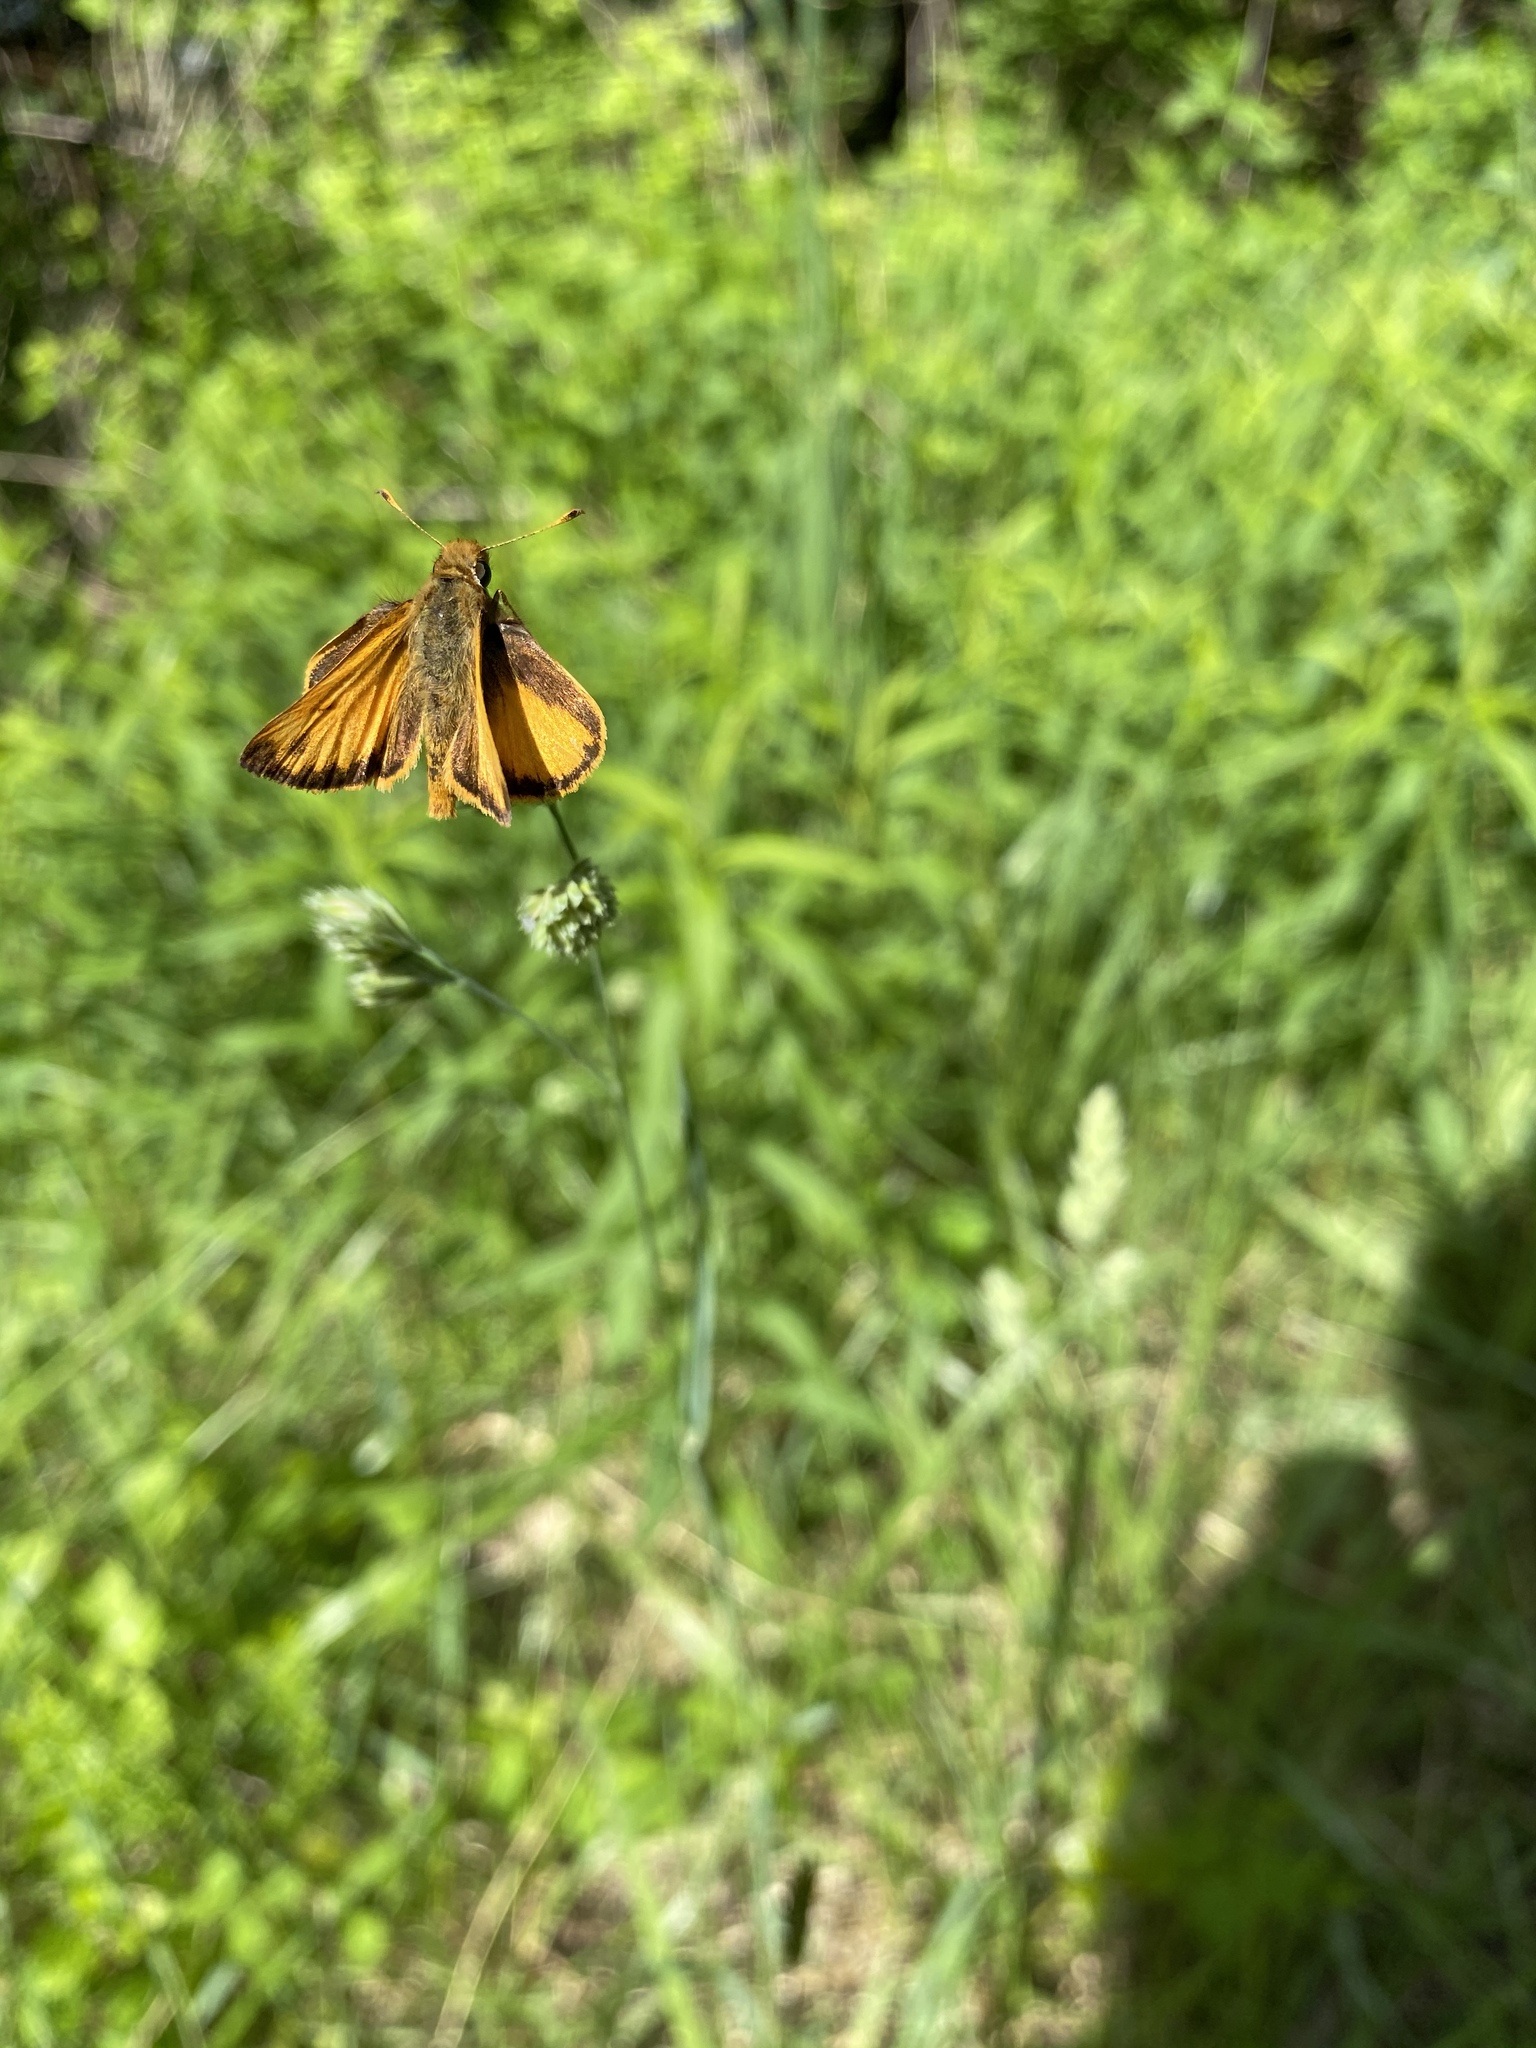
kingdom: Animalia
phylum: Arthropoda
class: Insecta
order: Lepidoptera
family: Hesperiidae
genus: Lon
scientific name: Lon zabulon
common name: Zabulon skipper
